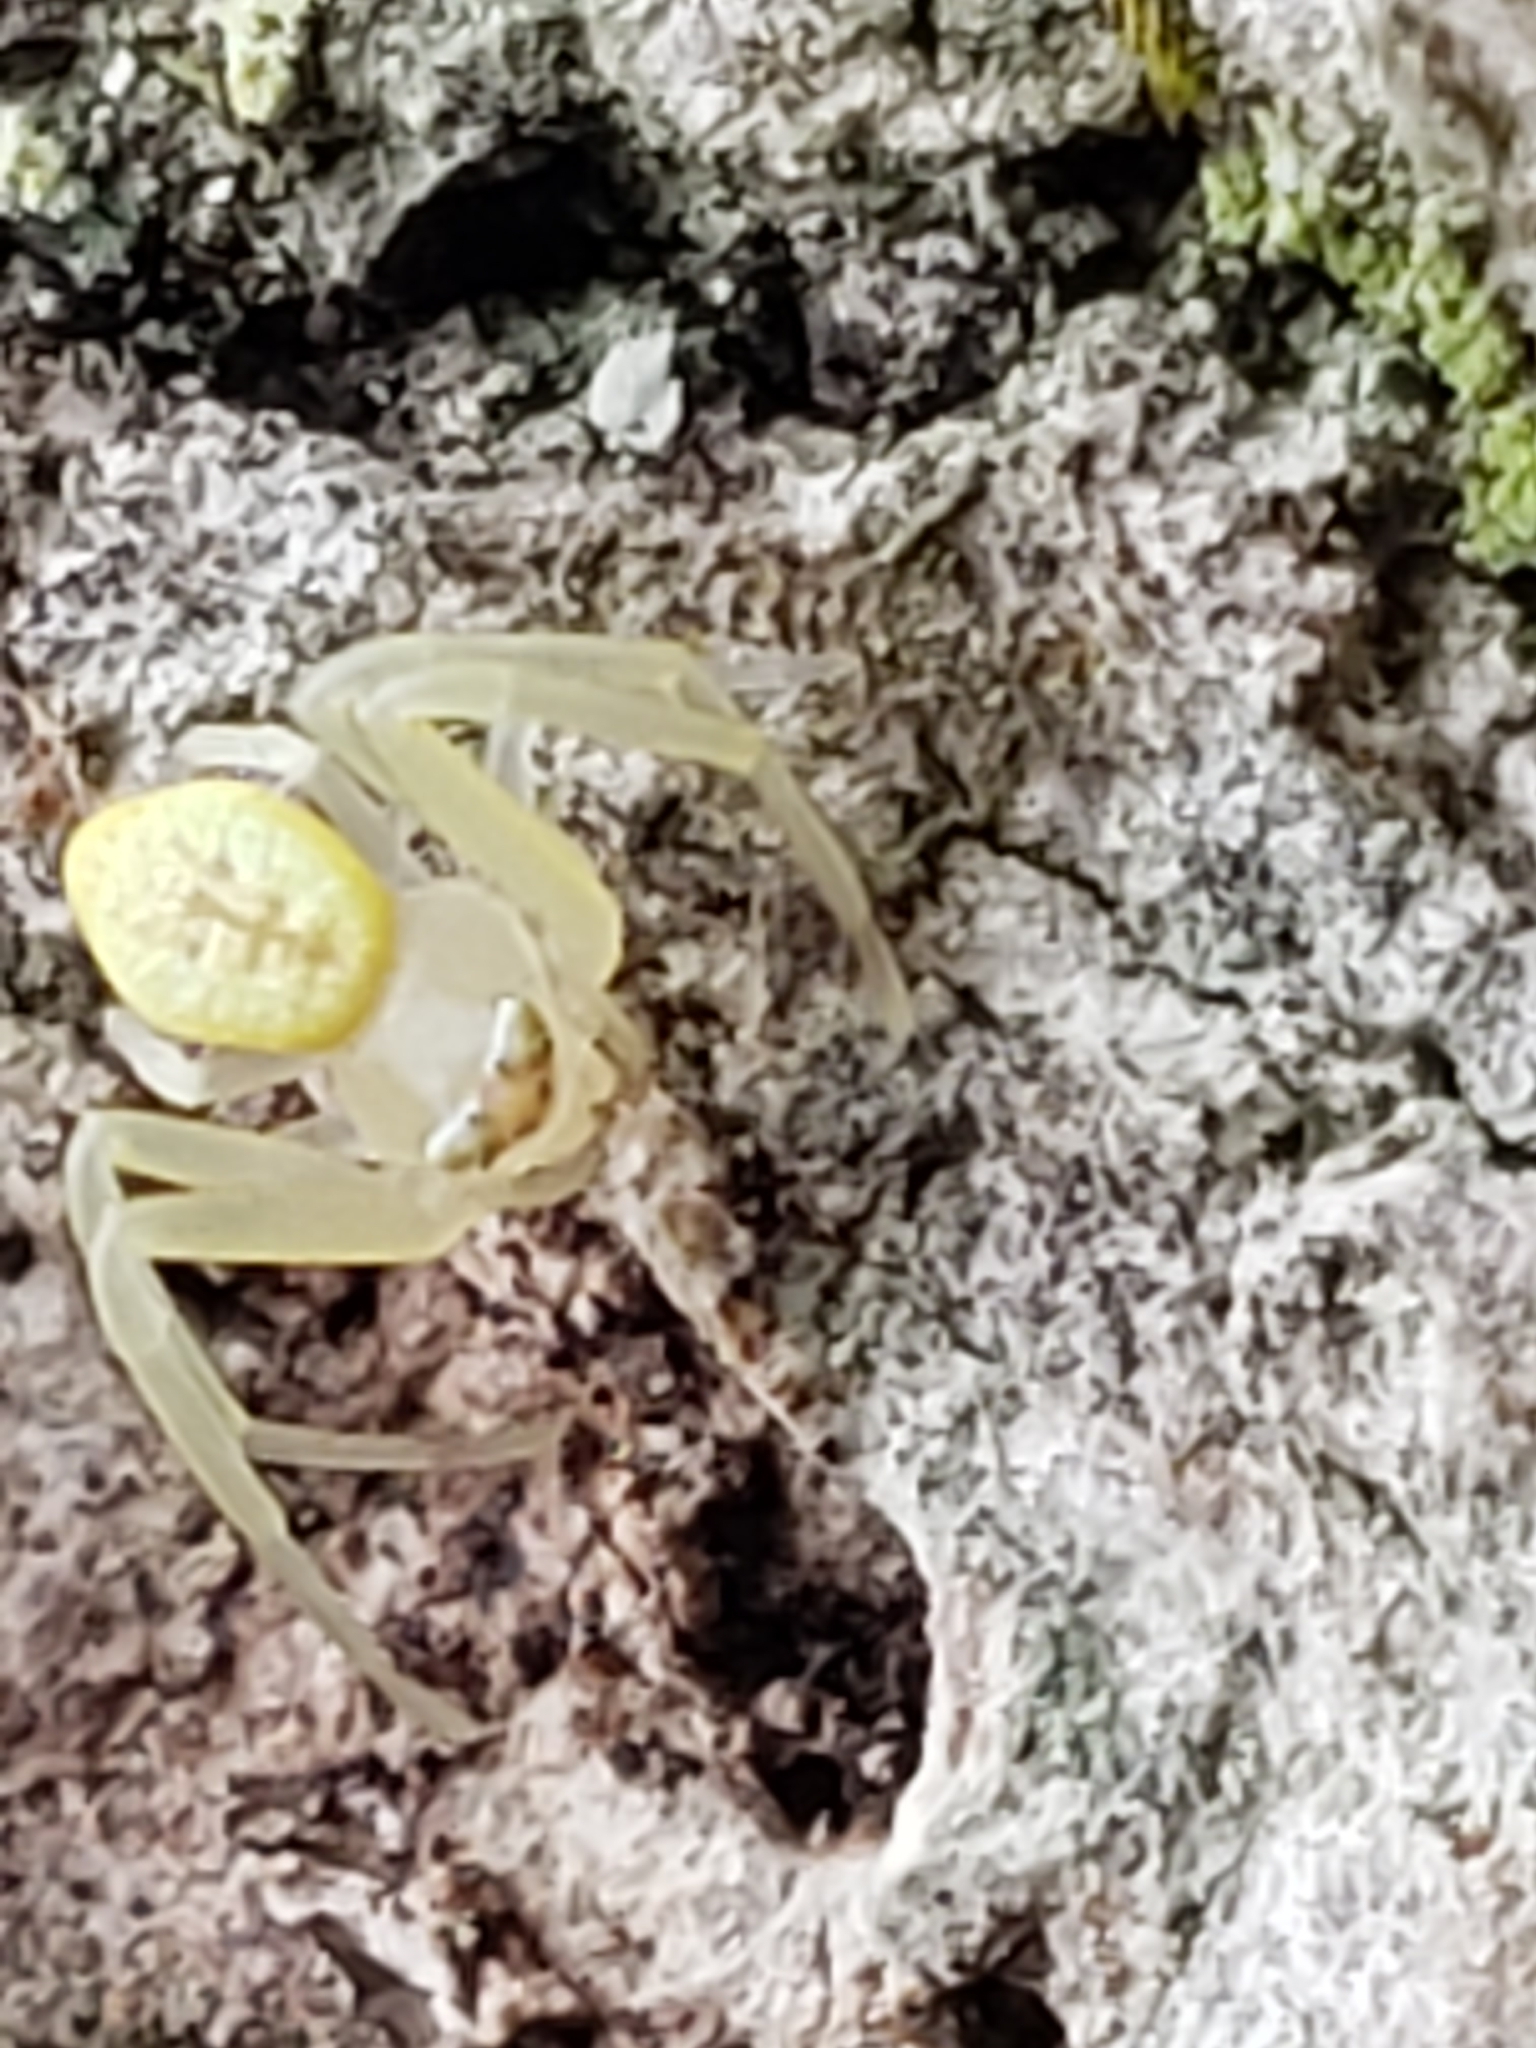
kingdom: Animalia
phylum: Arthropoda
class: Arachnida
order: Araneae
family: Thomisidae
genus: Misumessus
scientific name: Misumessus oblongus
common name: American green crab spider
